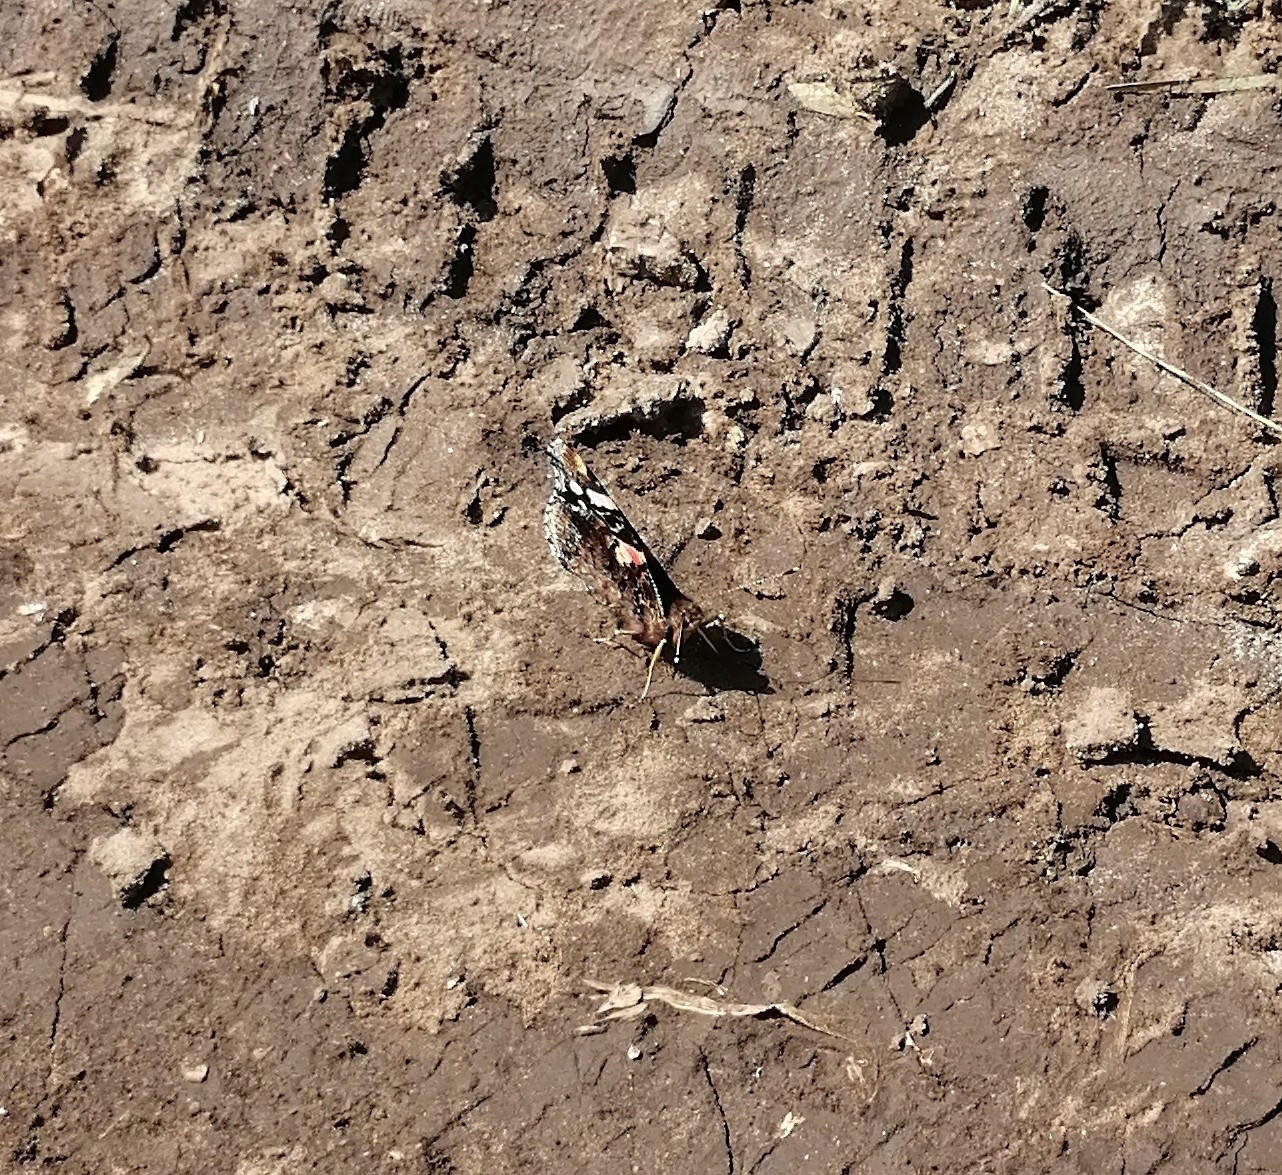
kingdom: Animalia
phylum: Arthropoda
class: Insecta
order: Lepidoptera
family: Nymphalidae
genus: Vanessa
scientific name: Vanessa atalanta
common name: Red admiral
